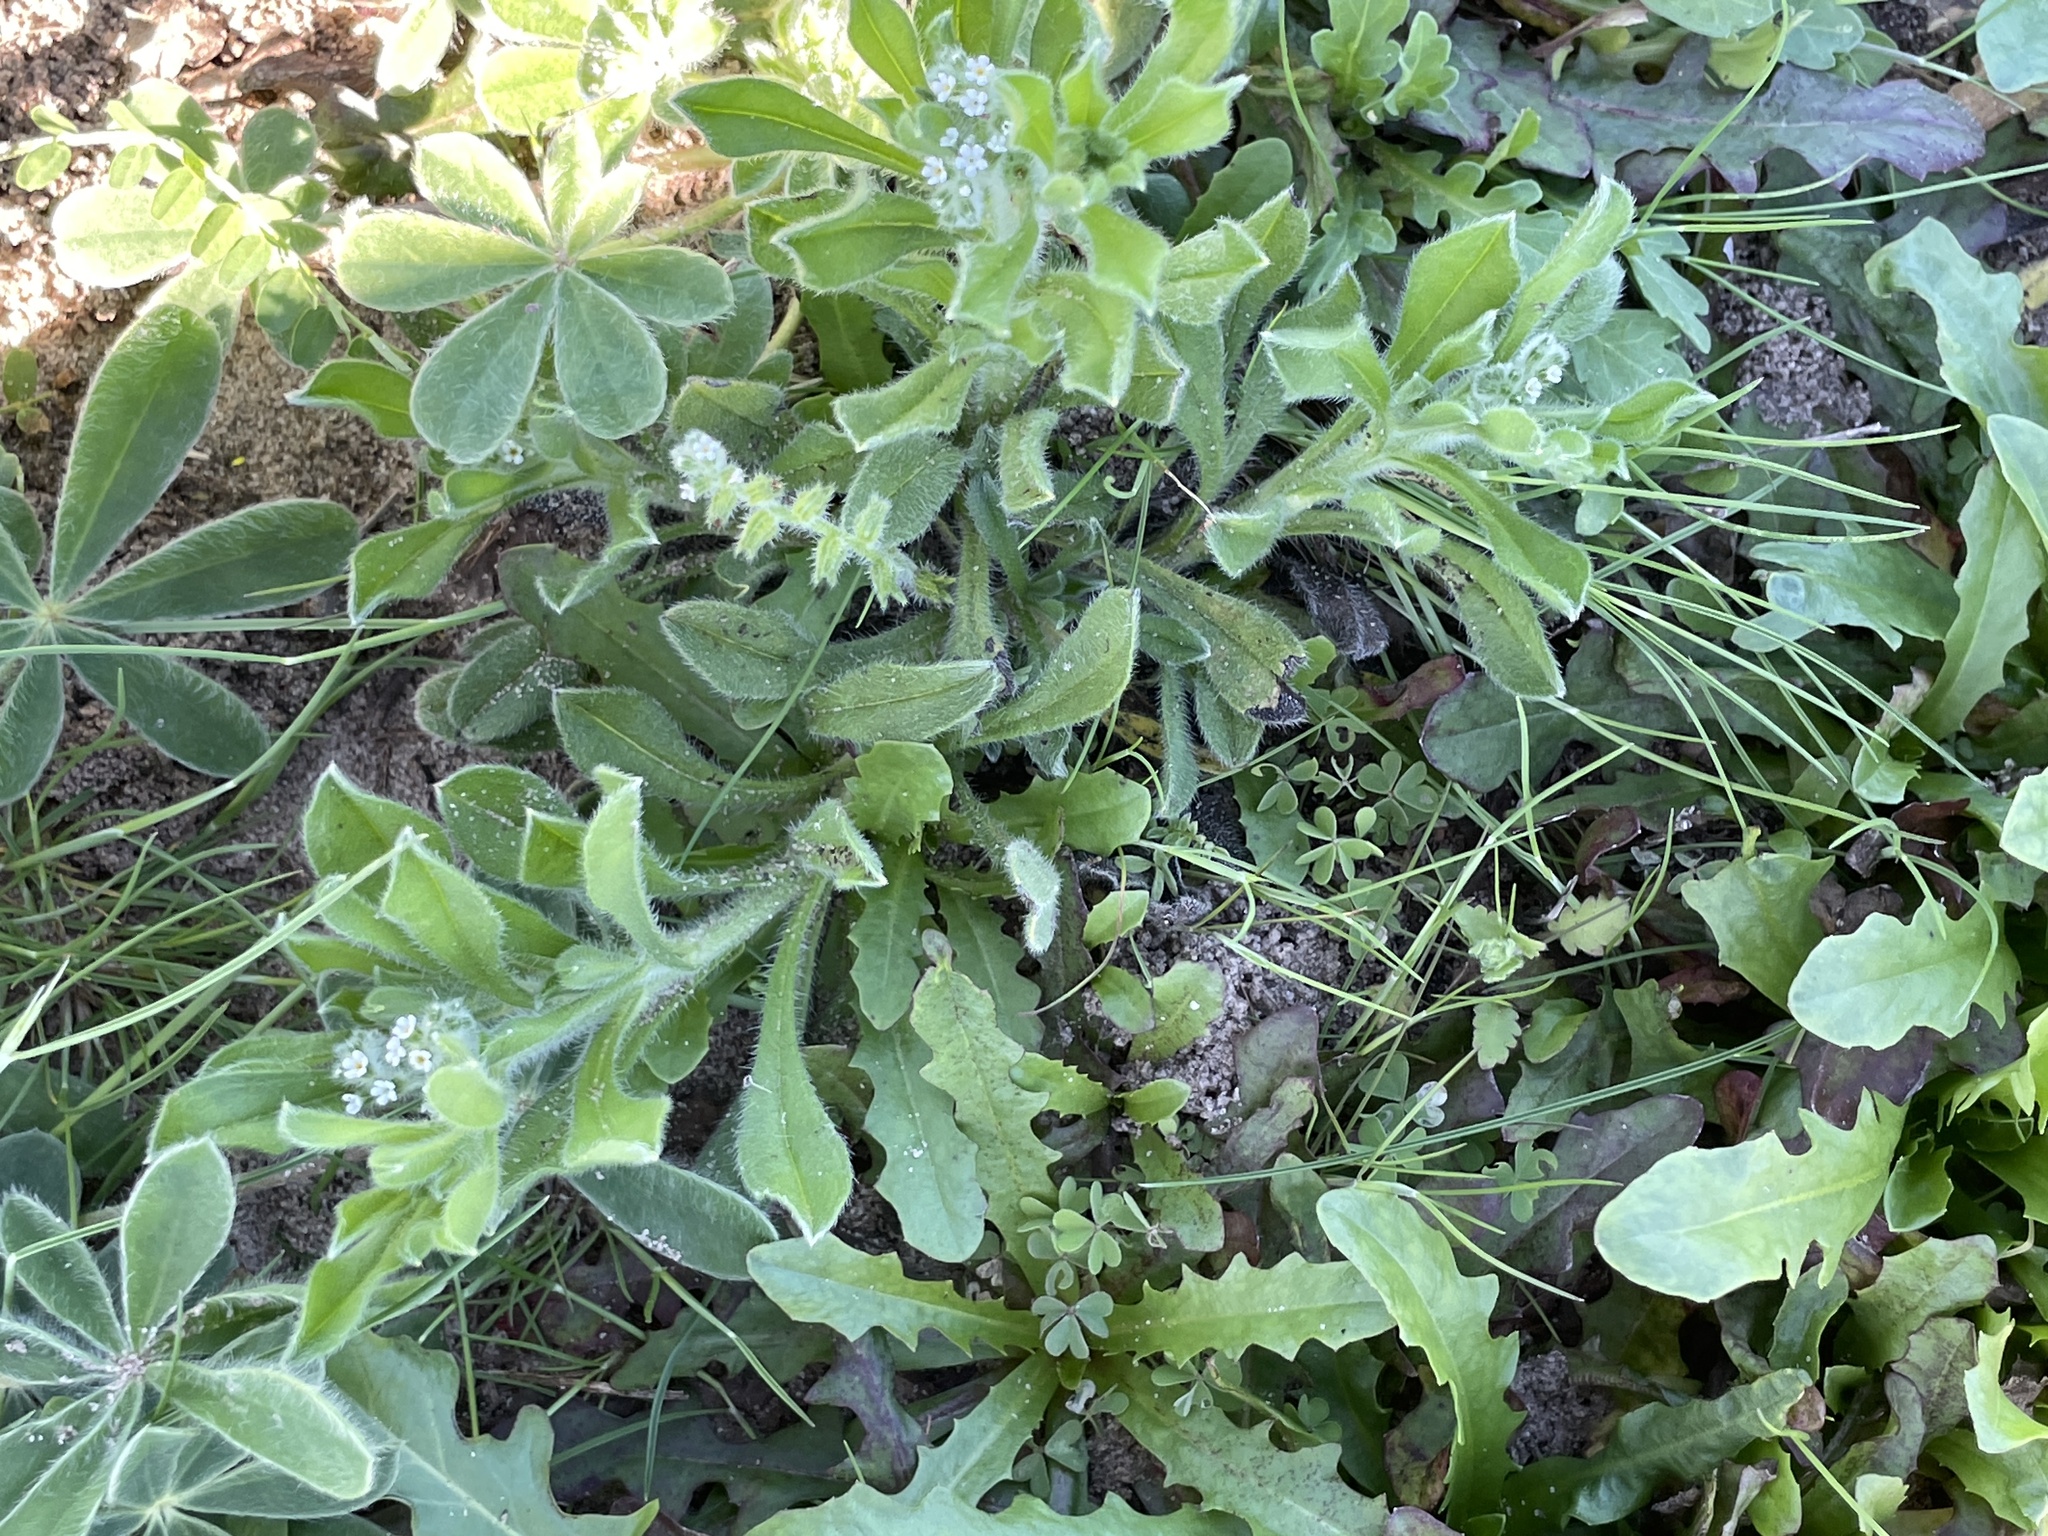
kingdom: Plantae
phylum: Tracheophyta
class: Magnoliopsida
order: Boraginales
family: Boraginaceae
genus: Cryptantha
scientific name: Cryptantha texana
